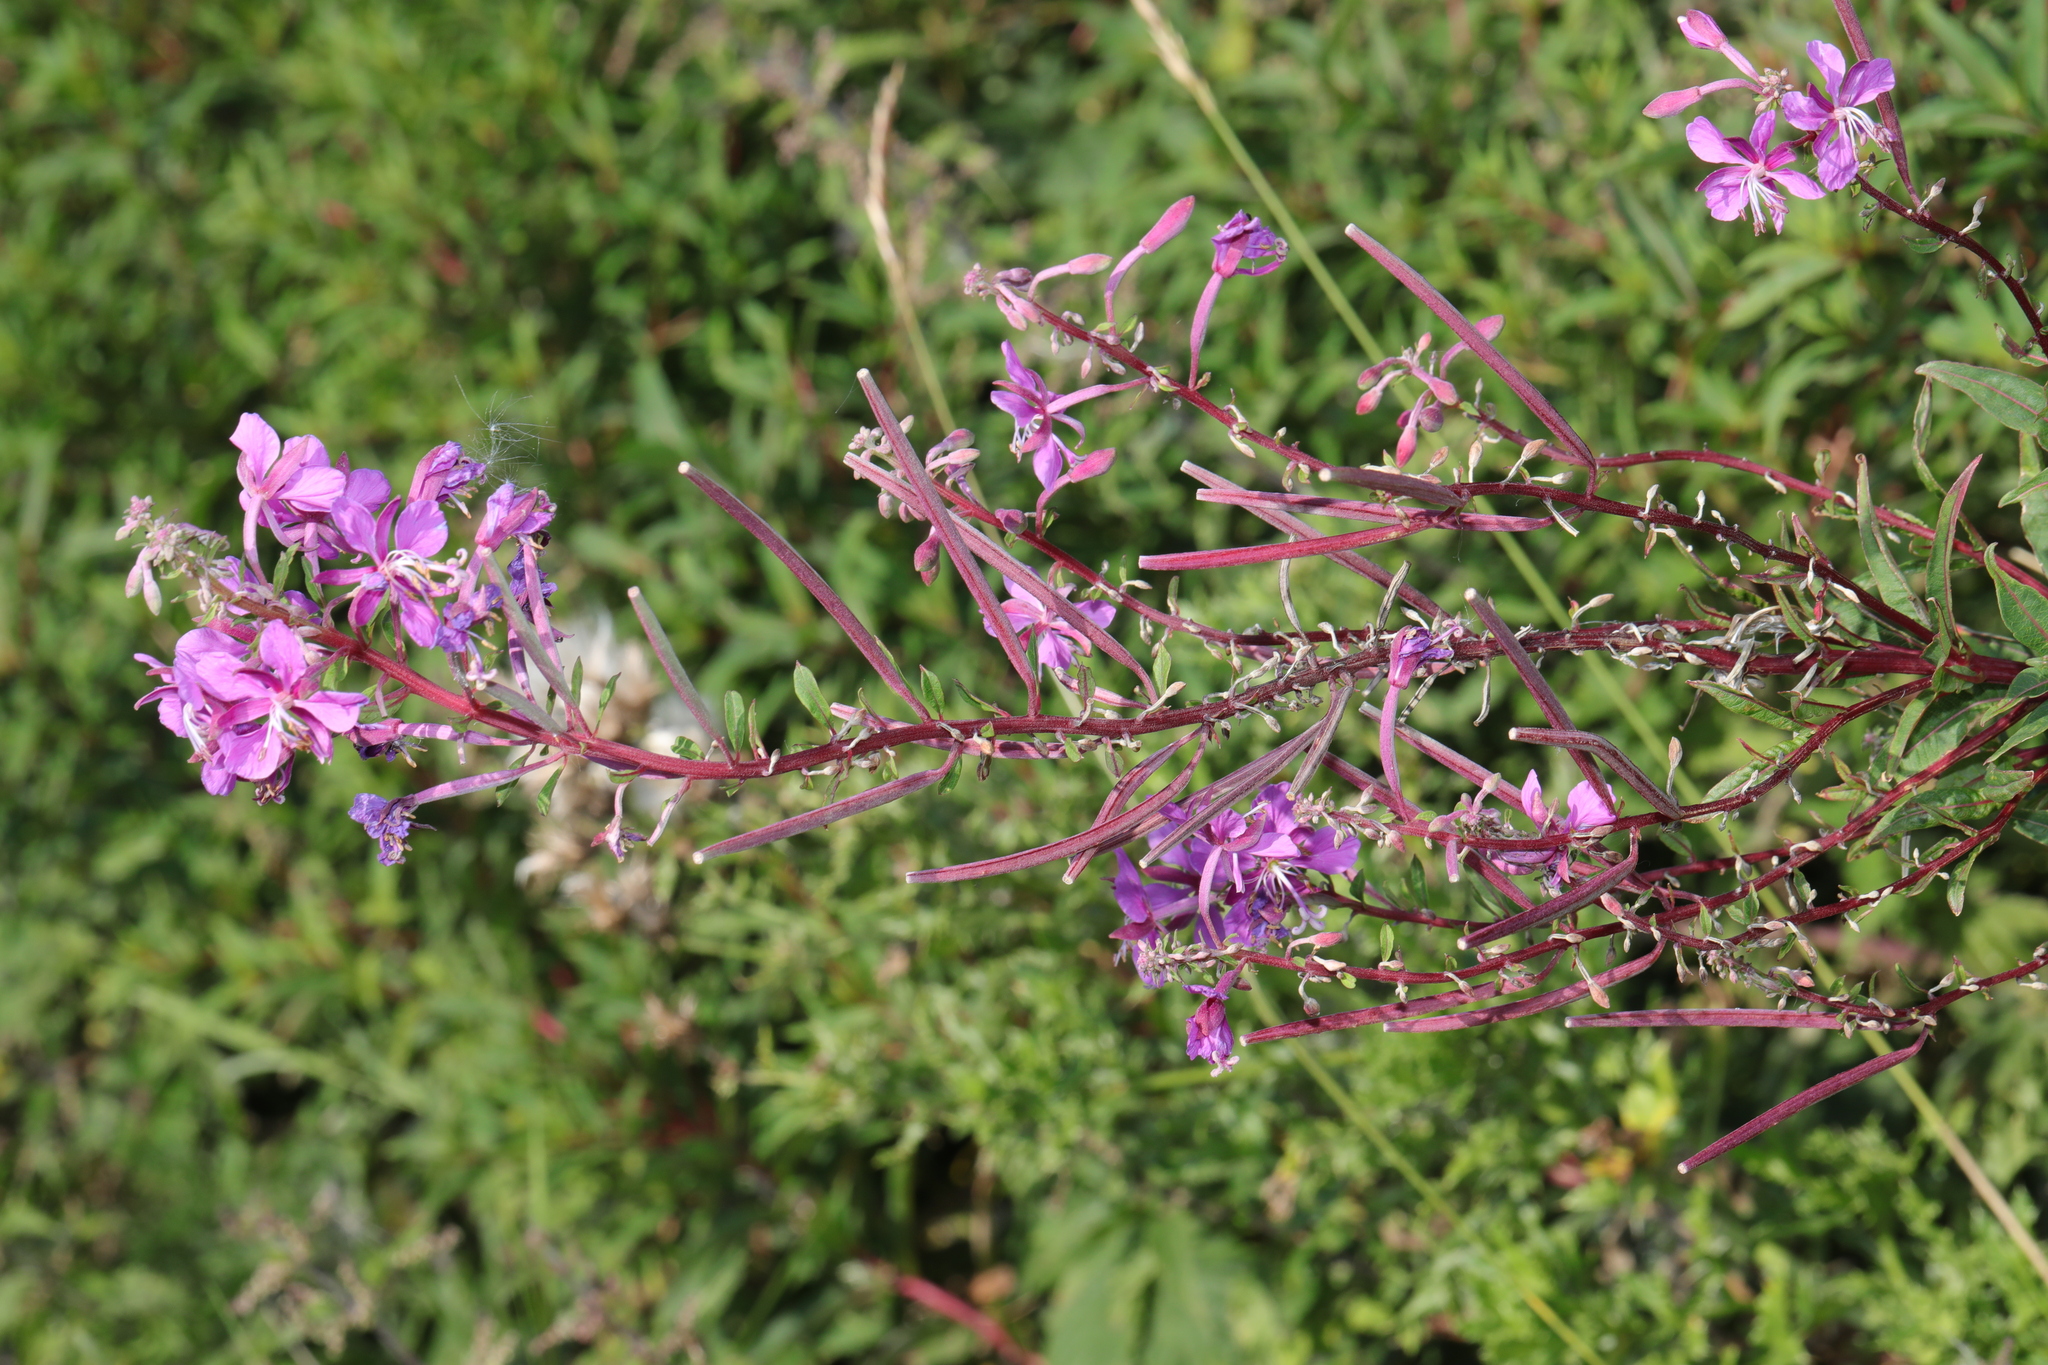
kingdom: Plantae
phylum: Tracheophyta
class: Magnoliopsida
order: Myrtales
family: Onagraceae
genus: Chamaenerion
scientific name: Chamaenerion angustifolium
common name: Fireweed
